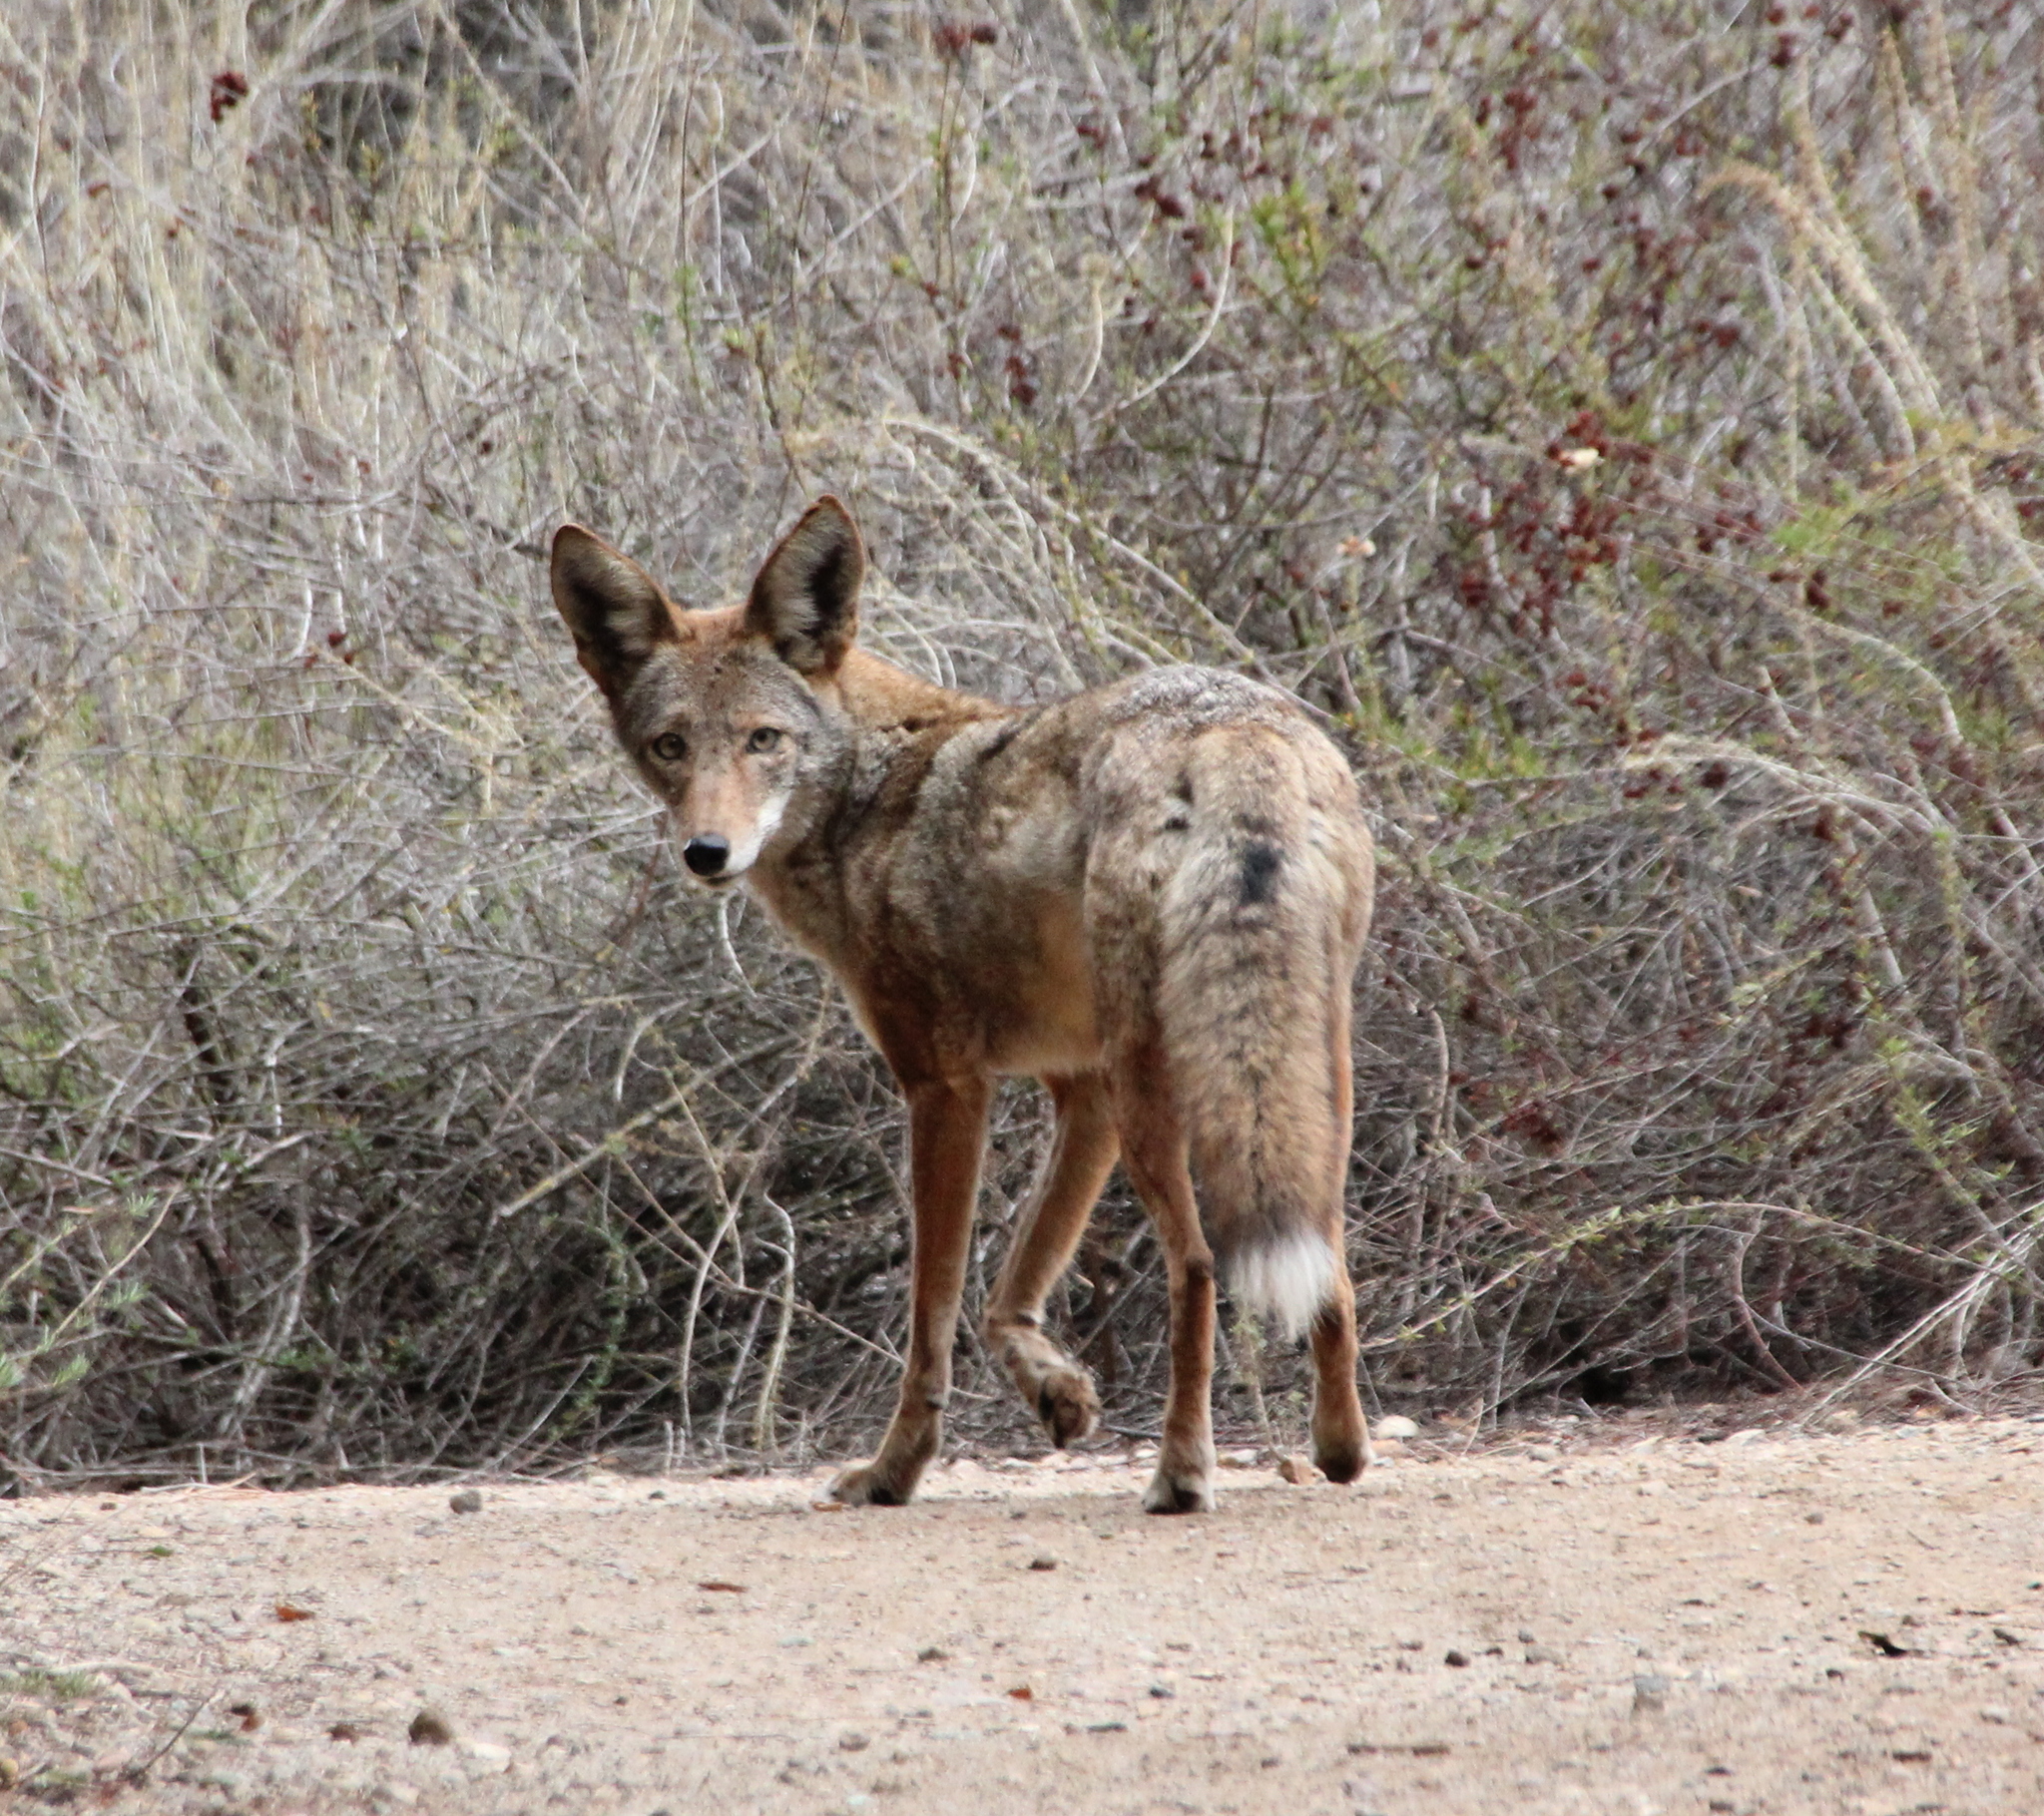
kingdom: Animalia
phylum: Chordata
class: Mammalia
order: Carnivora
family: Canidae
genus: Canis
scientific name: Canis latrans
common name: Coyote
